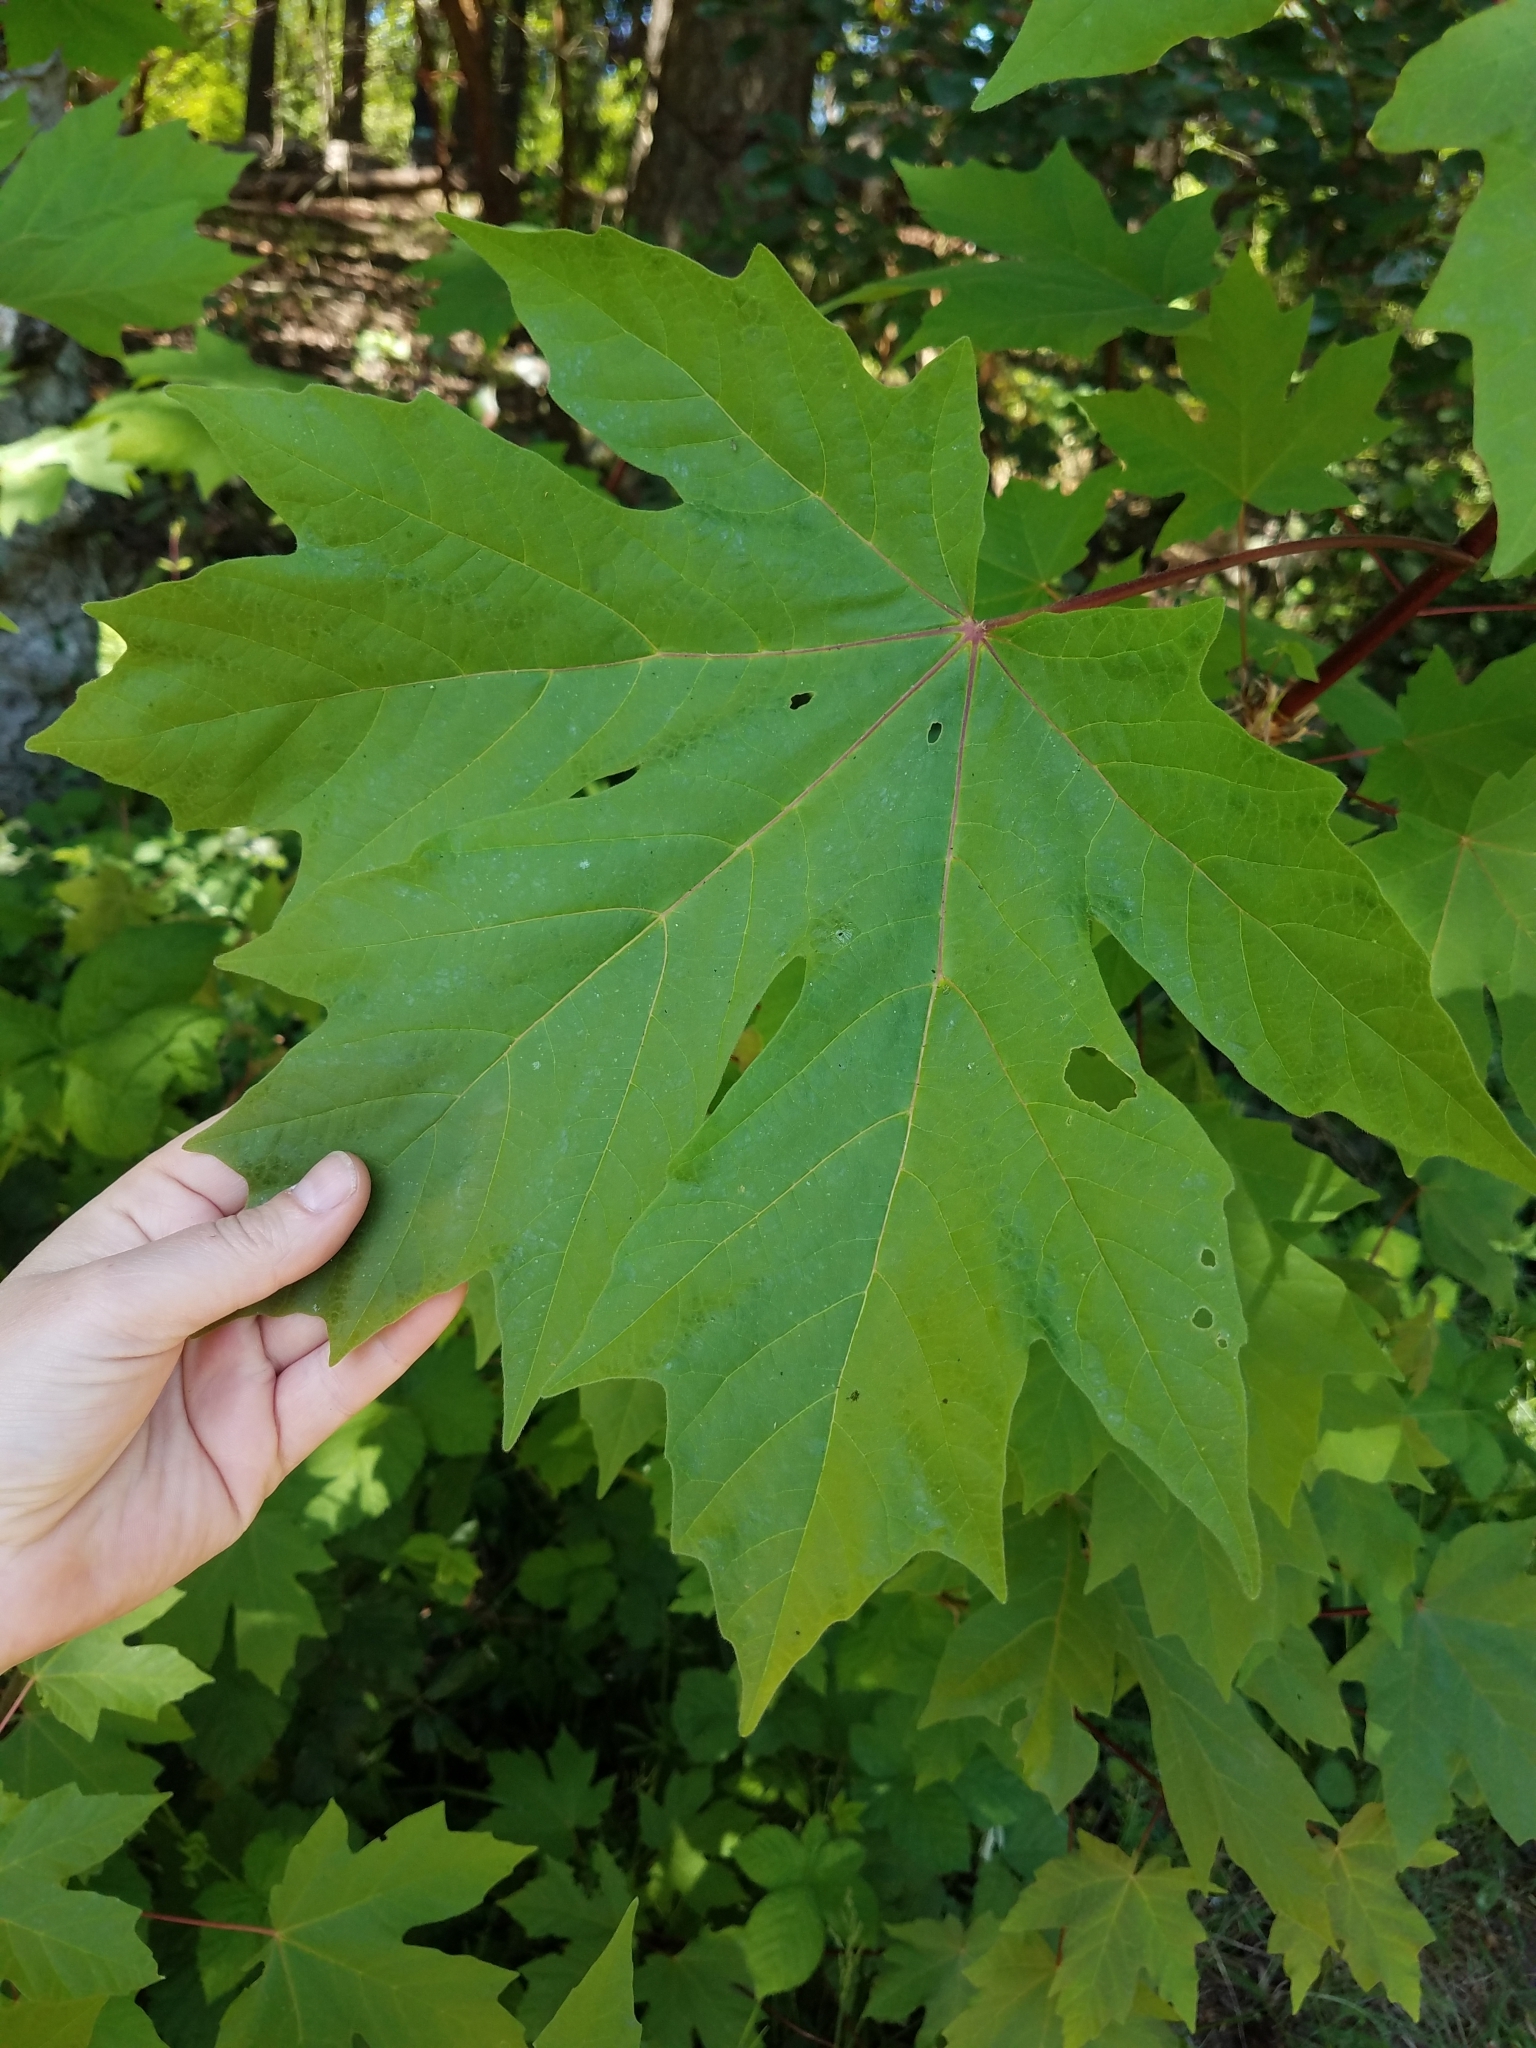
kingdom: Plantae
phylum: Tracheophyta
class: Magnoliopsida
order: Sapindales
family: Sapindaceae
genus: Acer
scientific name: Acer macrophyllum
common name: Oregon maple
